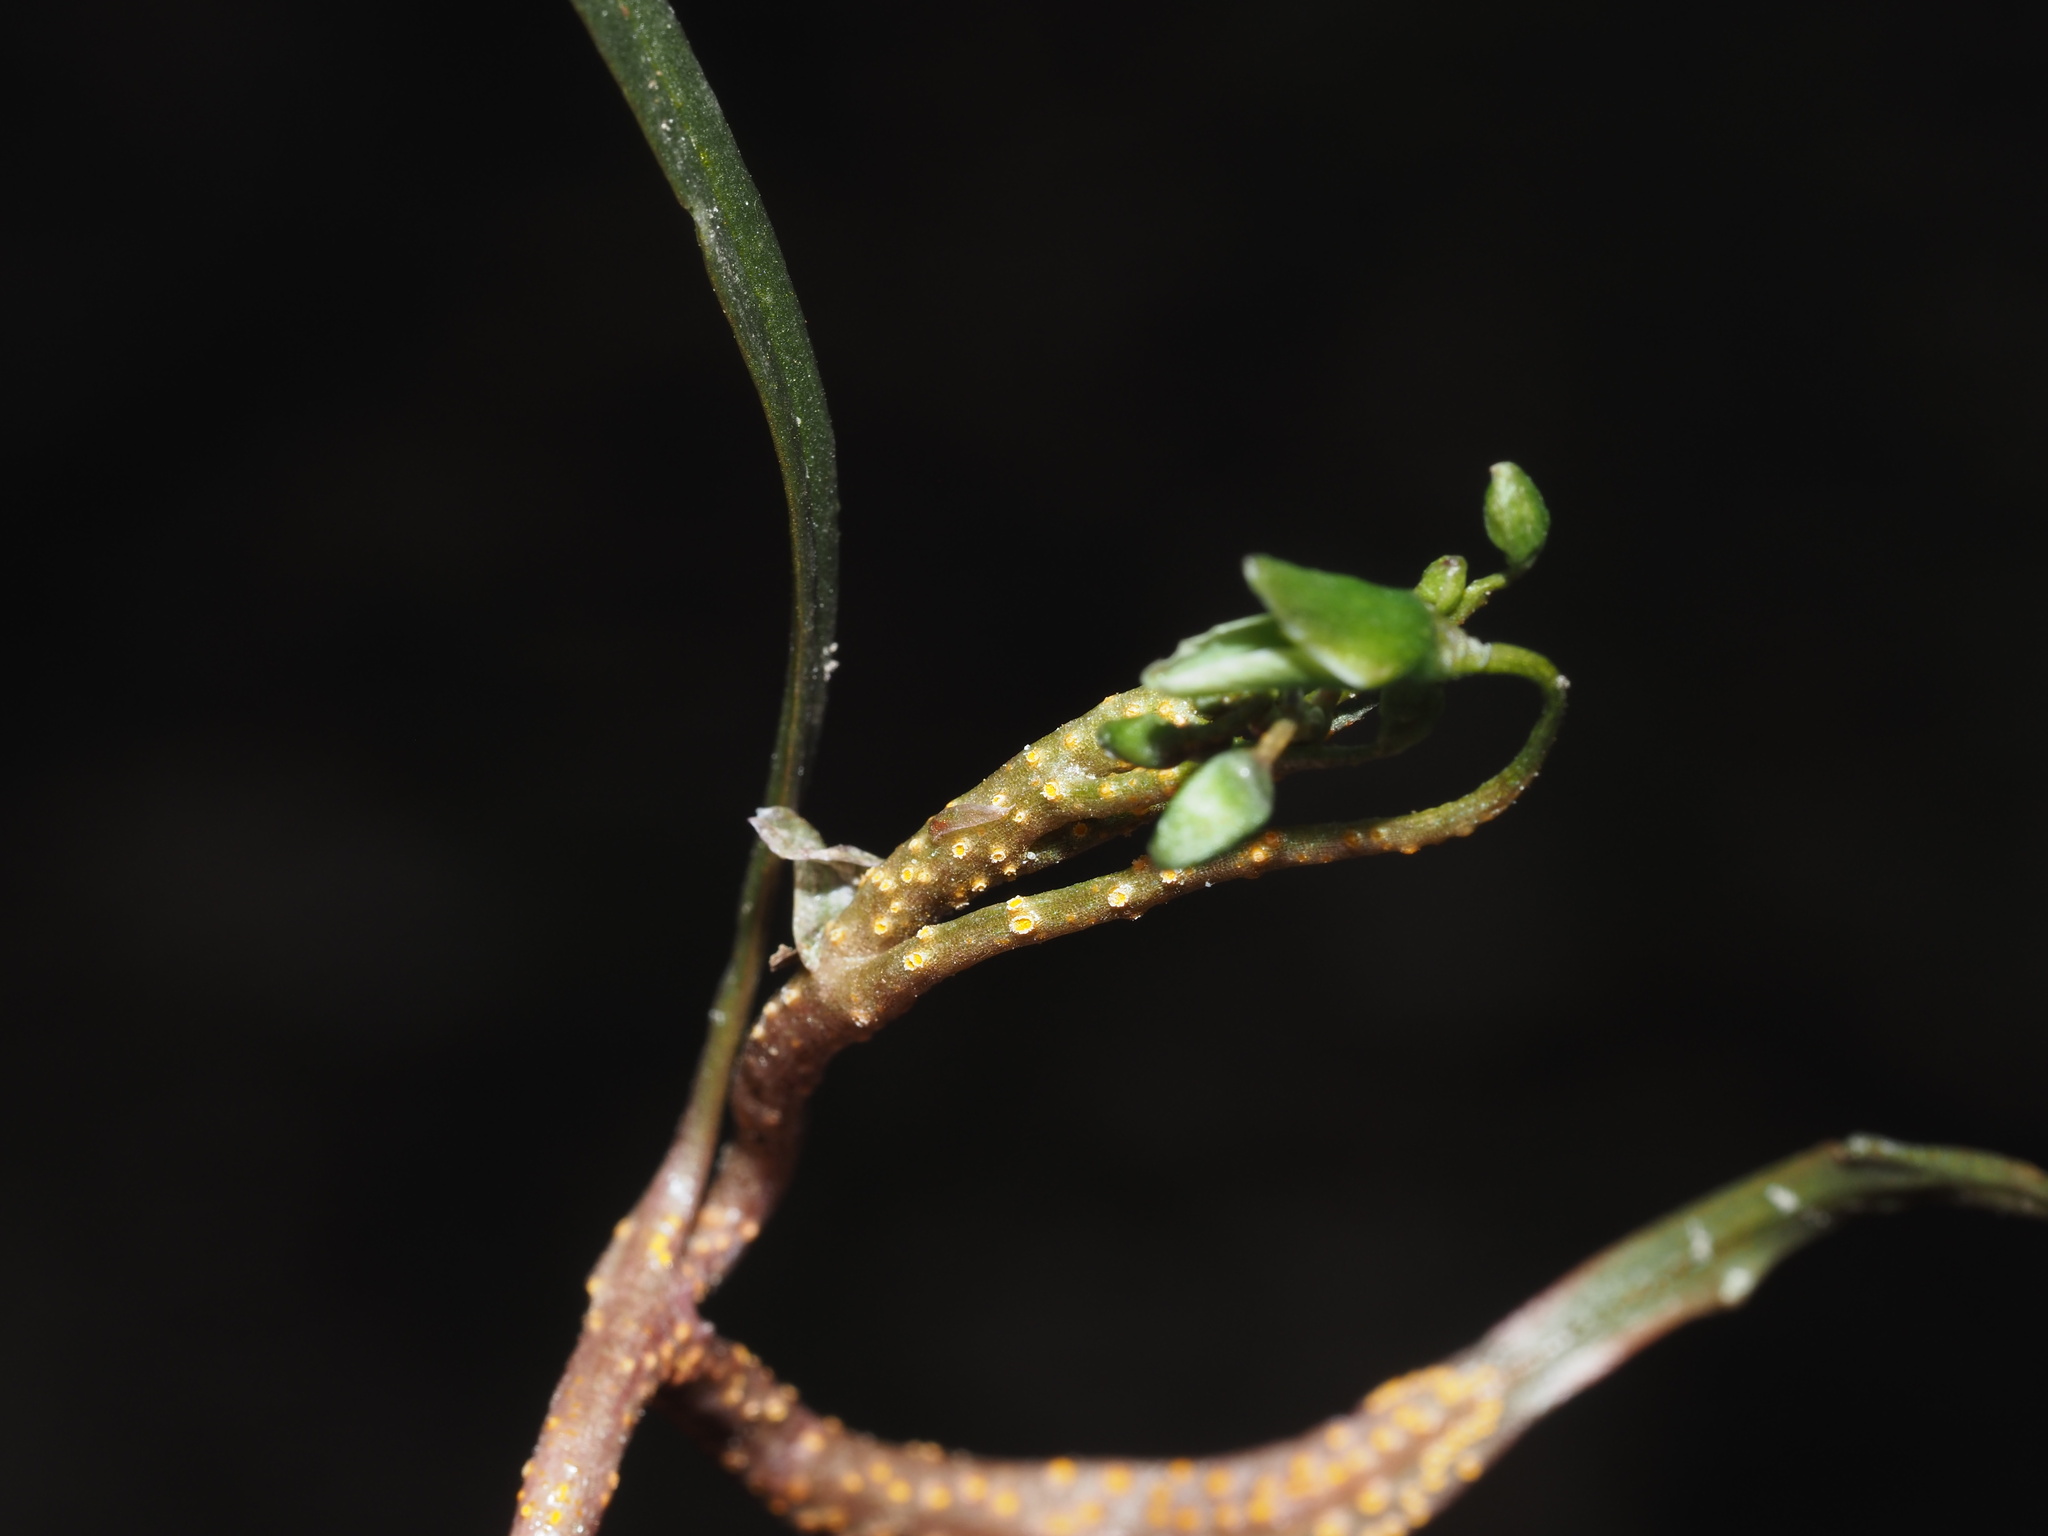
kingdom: Fungi
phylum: Basidiomycota
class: Pucciniomycetes
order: Pucciniales
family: Pucciniaceae
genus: Puccinia
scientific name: Puccinia mariae-wilsoniae
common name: Spring beauty rust
